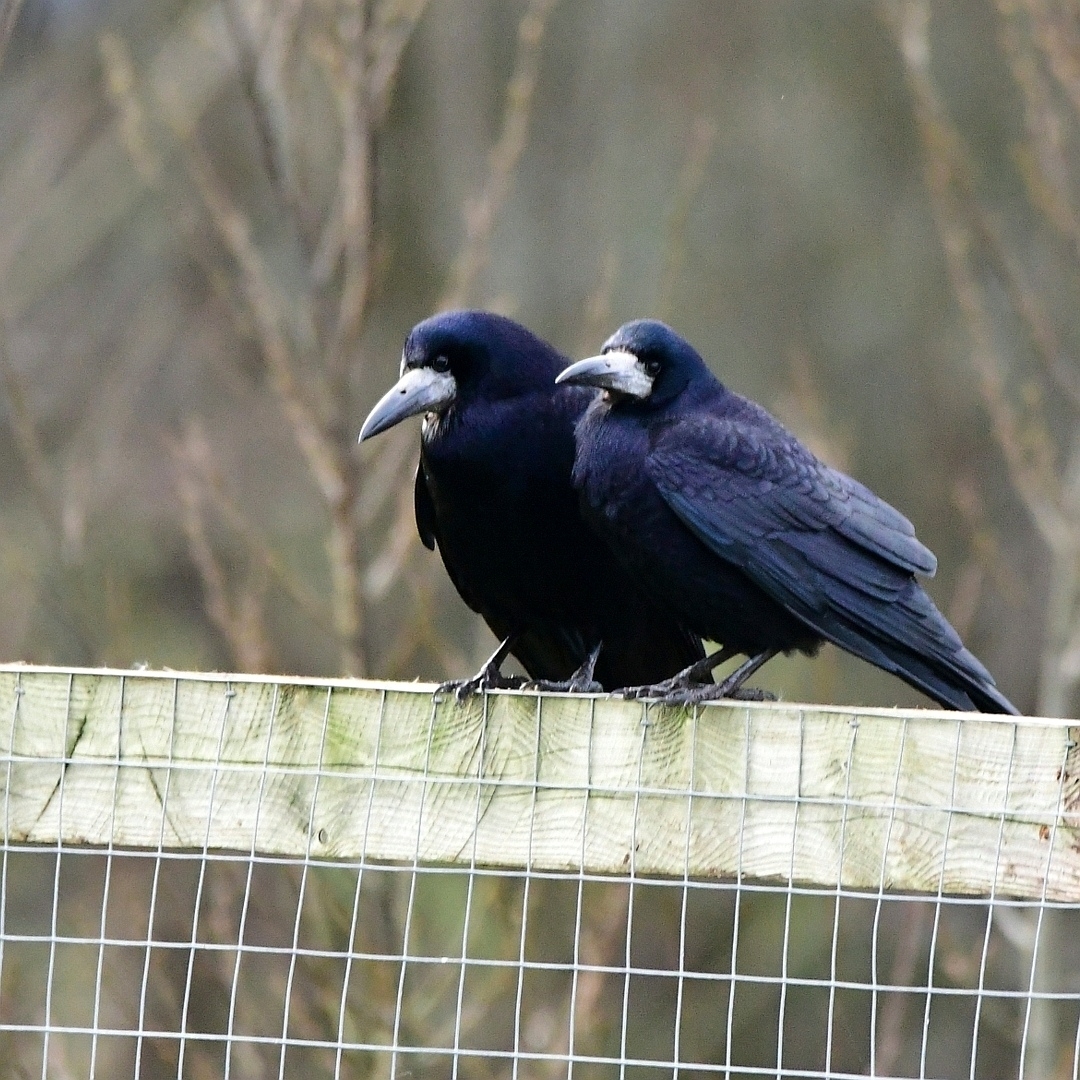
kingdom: Animalia
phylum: Chordata
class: Aves
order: Passeriformes
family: Corvidae
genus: Corvus
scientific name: Corvus frugilegus
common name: Rook
